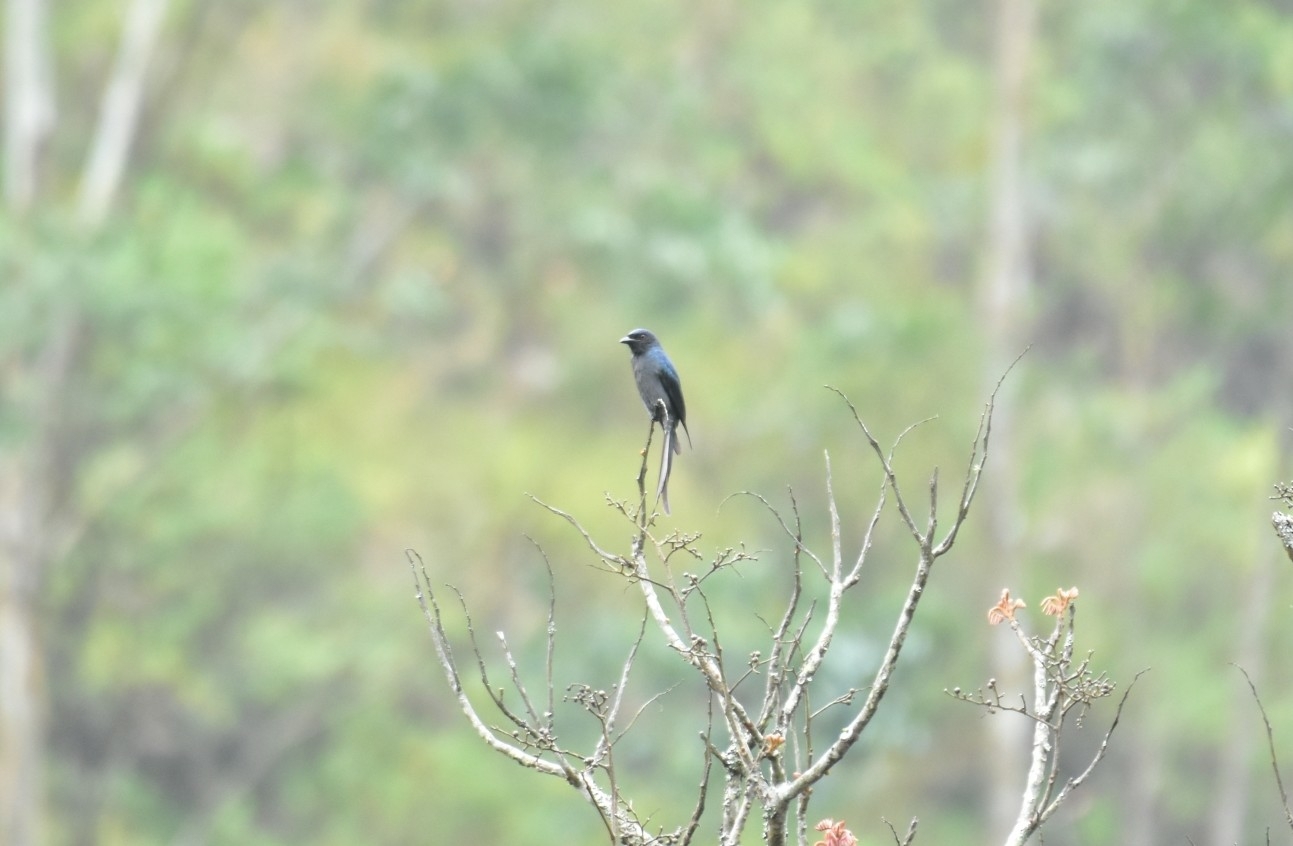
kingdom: Animalia
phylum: Chordata
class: Aves
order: Passeriformes
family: Dicruridae
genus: Dicrurus
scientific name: Dicrurus leucophaeus
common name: Ashy drongo
